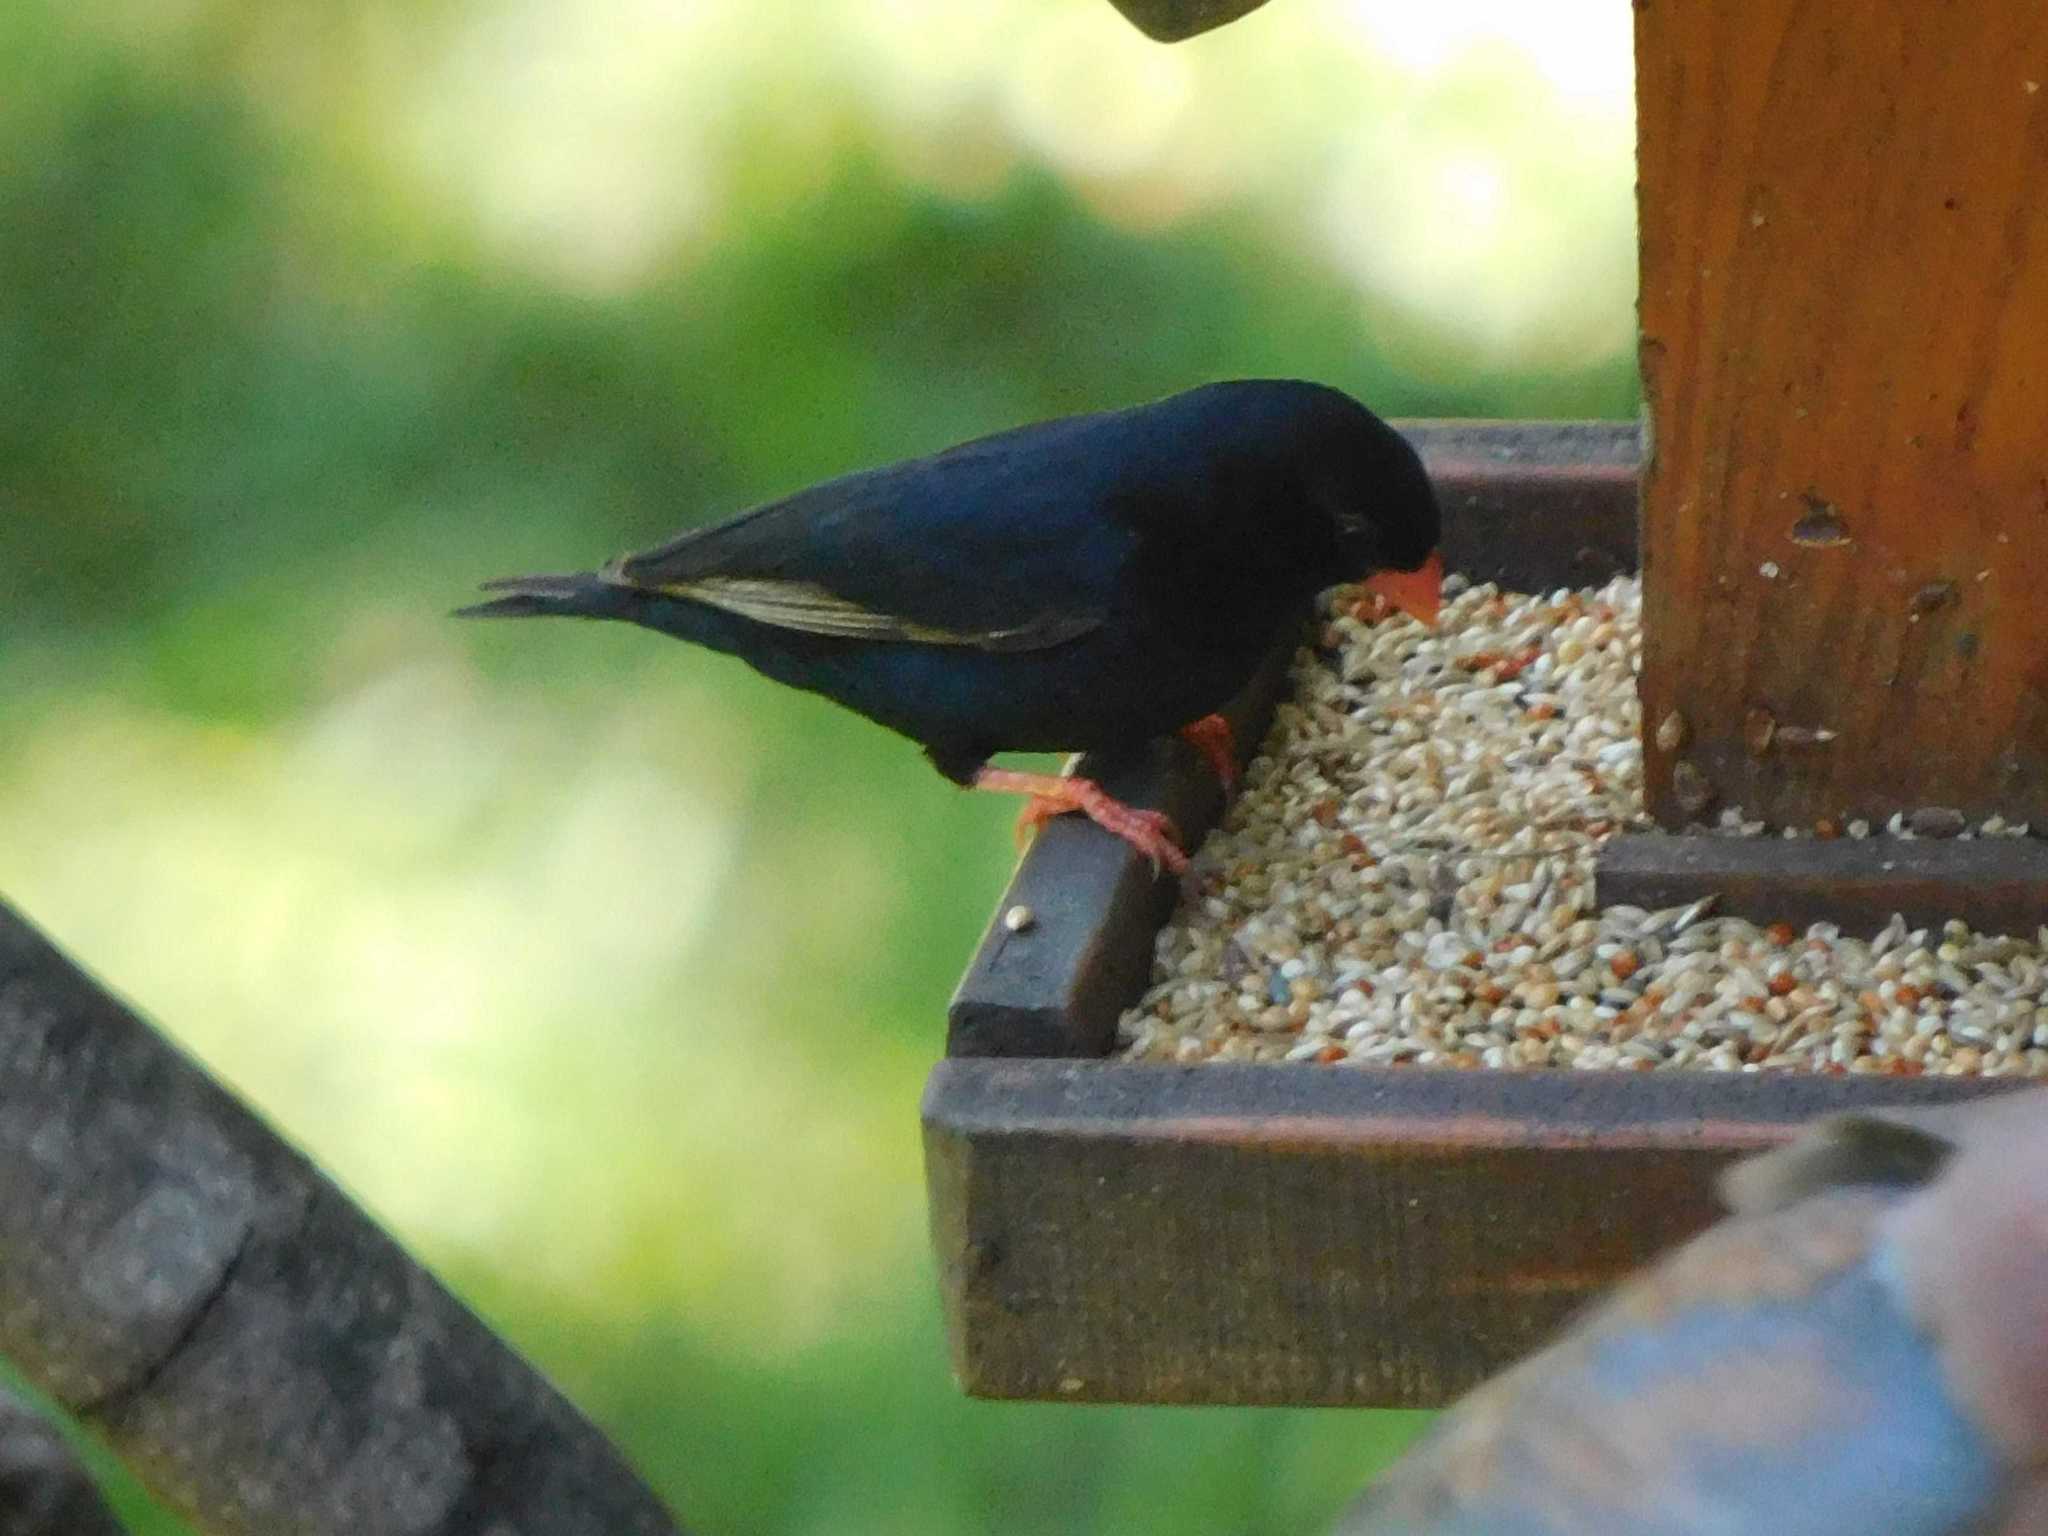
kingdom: Animalia
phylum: Chordata
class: Aves
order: Passeriformes
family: Viduidae
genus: Vidua
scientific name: Vidua chalybeata
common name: Village indigobird
